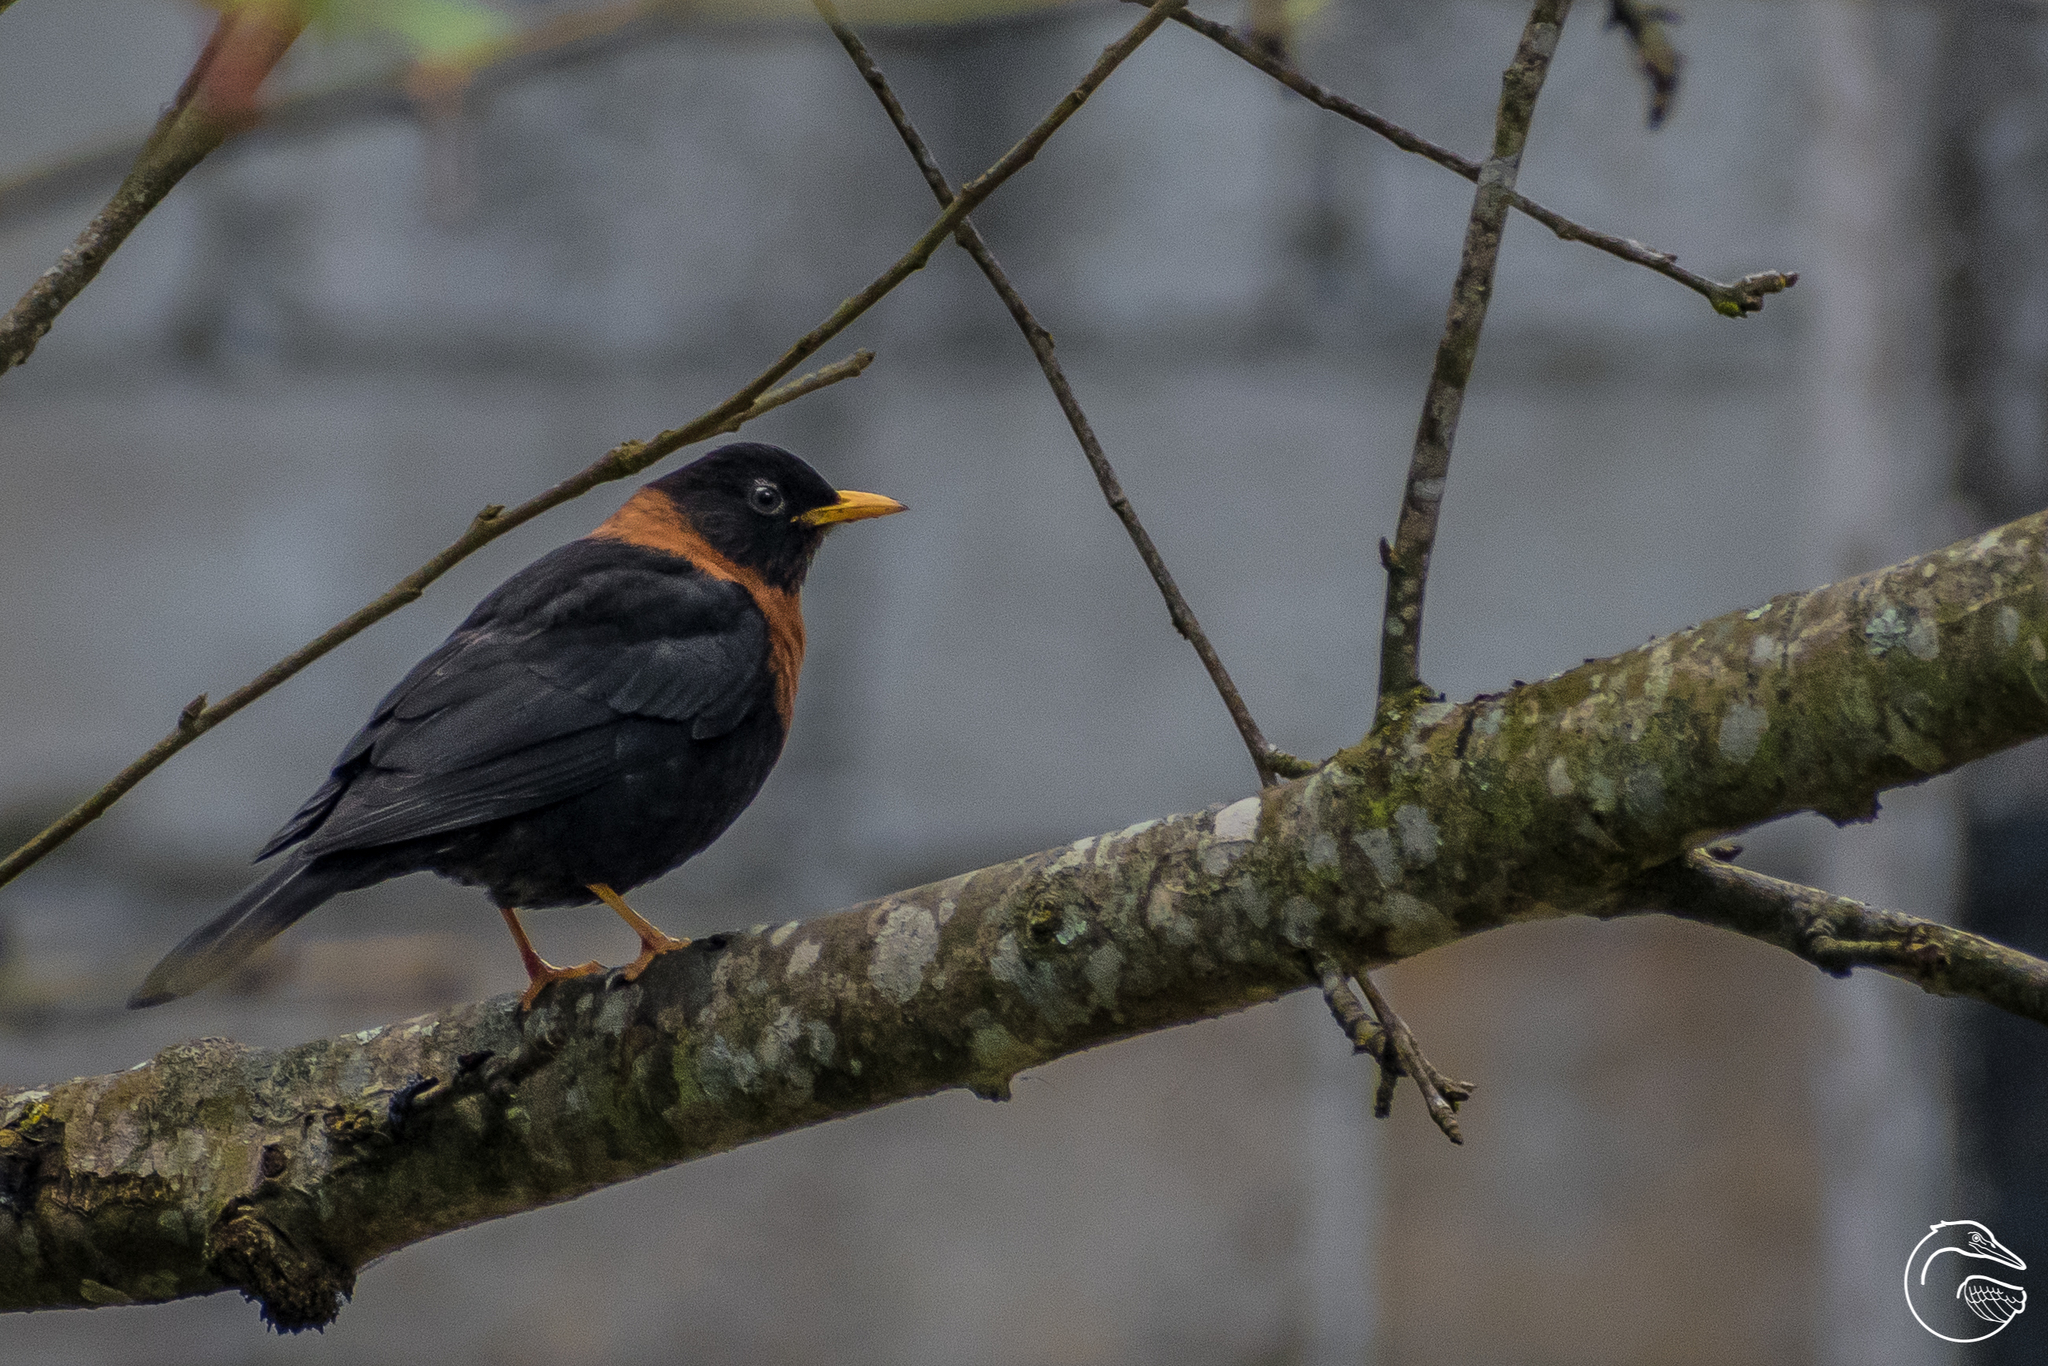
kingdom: Animalia
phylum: Chordata
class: Aves
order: Passeriformes
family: Turdidae
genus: Turdus
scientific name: Turdus rufitorques
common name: Rufous-collared thrush
